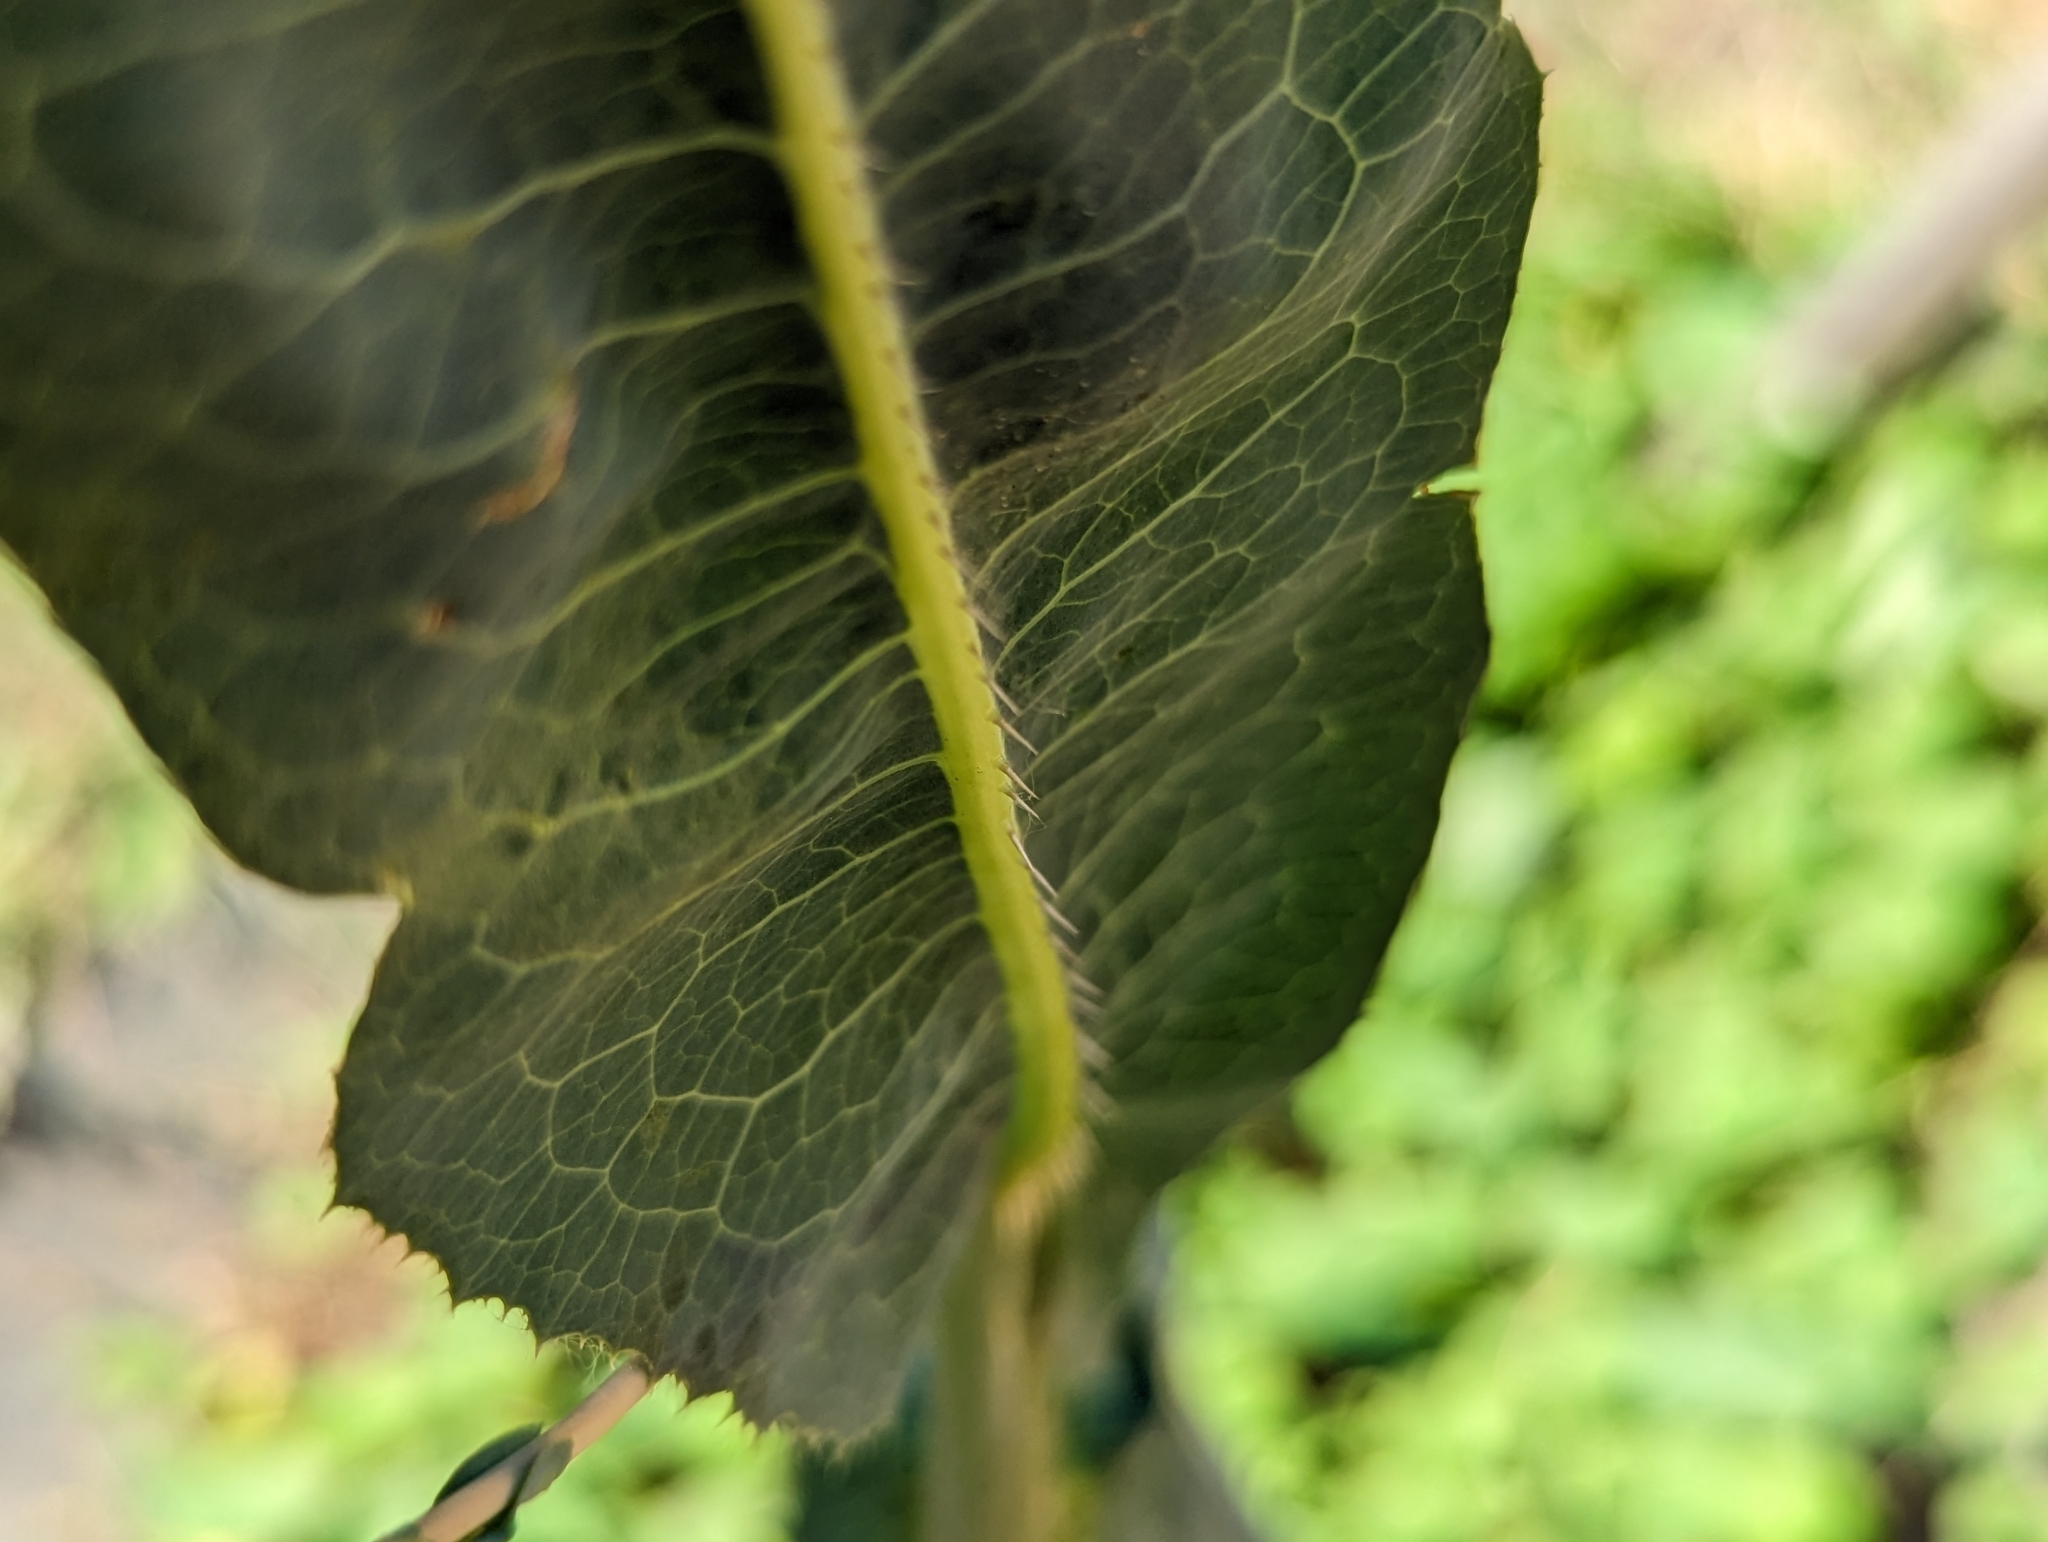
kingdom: Plantae
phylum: Tracheophyta
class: Magnoliopsida
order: Asterales
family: Asteraceae
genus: Lactuca
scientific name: Lactuca serriola
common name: Prickly lettuce
